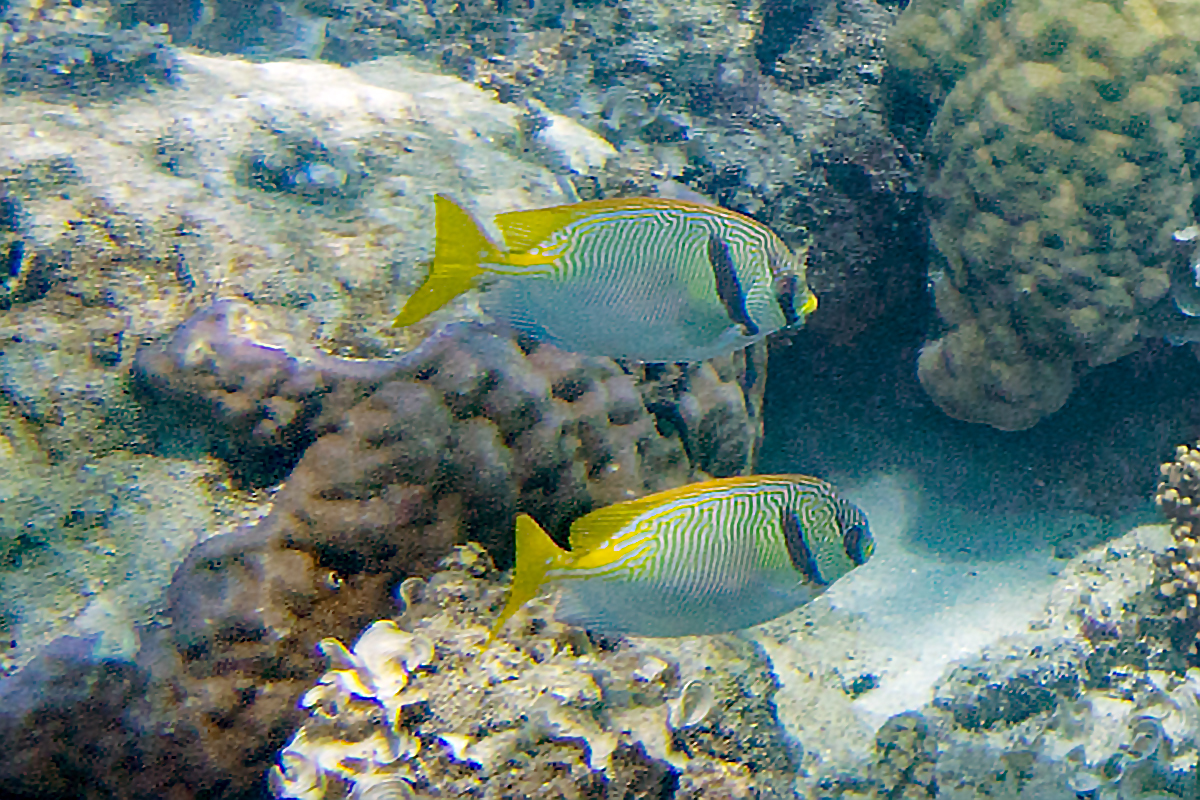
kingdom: Animalia
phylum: Chordata
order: Perciformes
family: Siganidae
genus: Siganus
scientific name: Siganus doliatus
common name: Barred spinefoot
